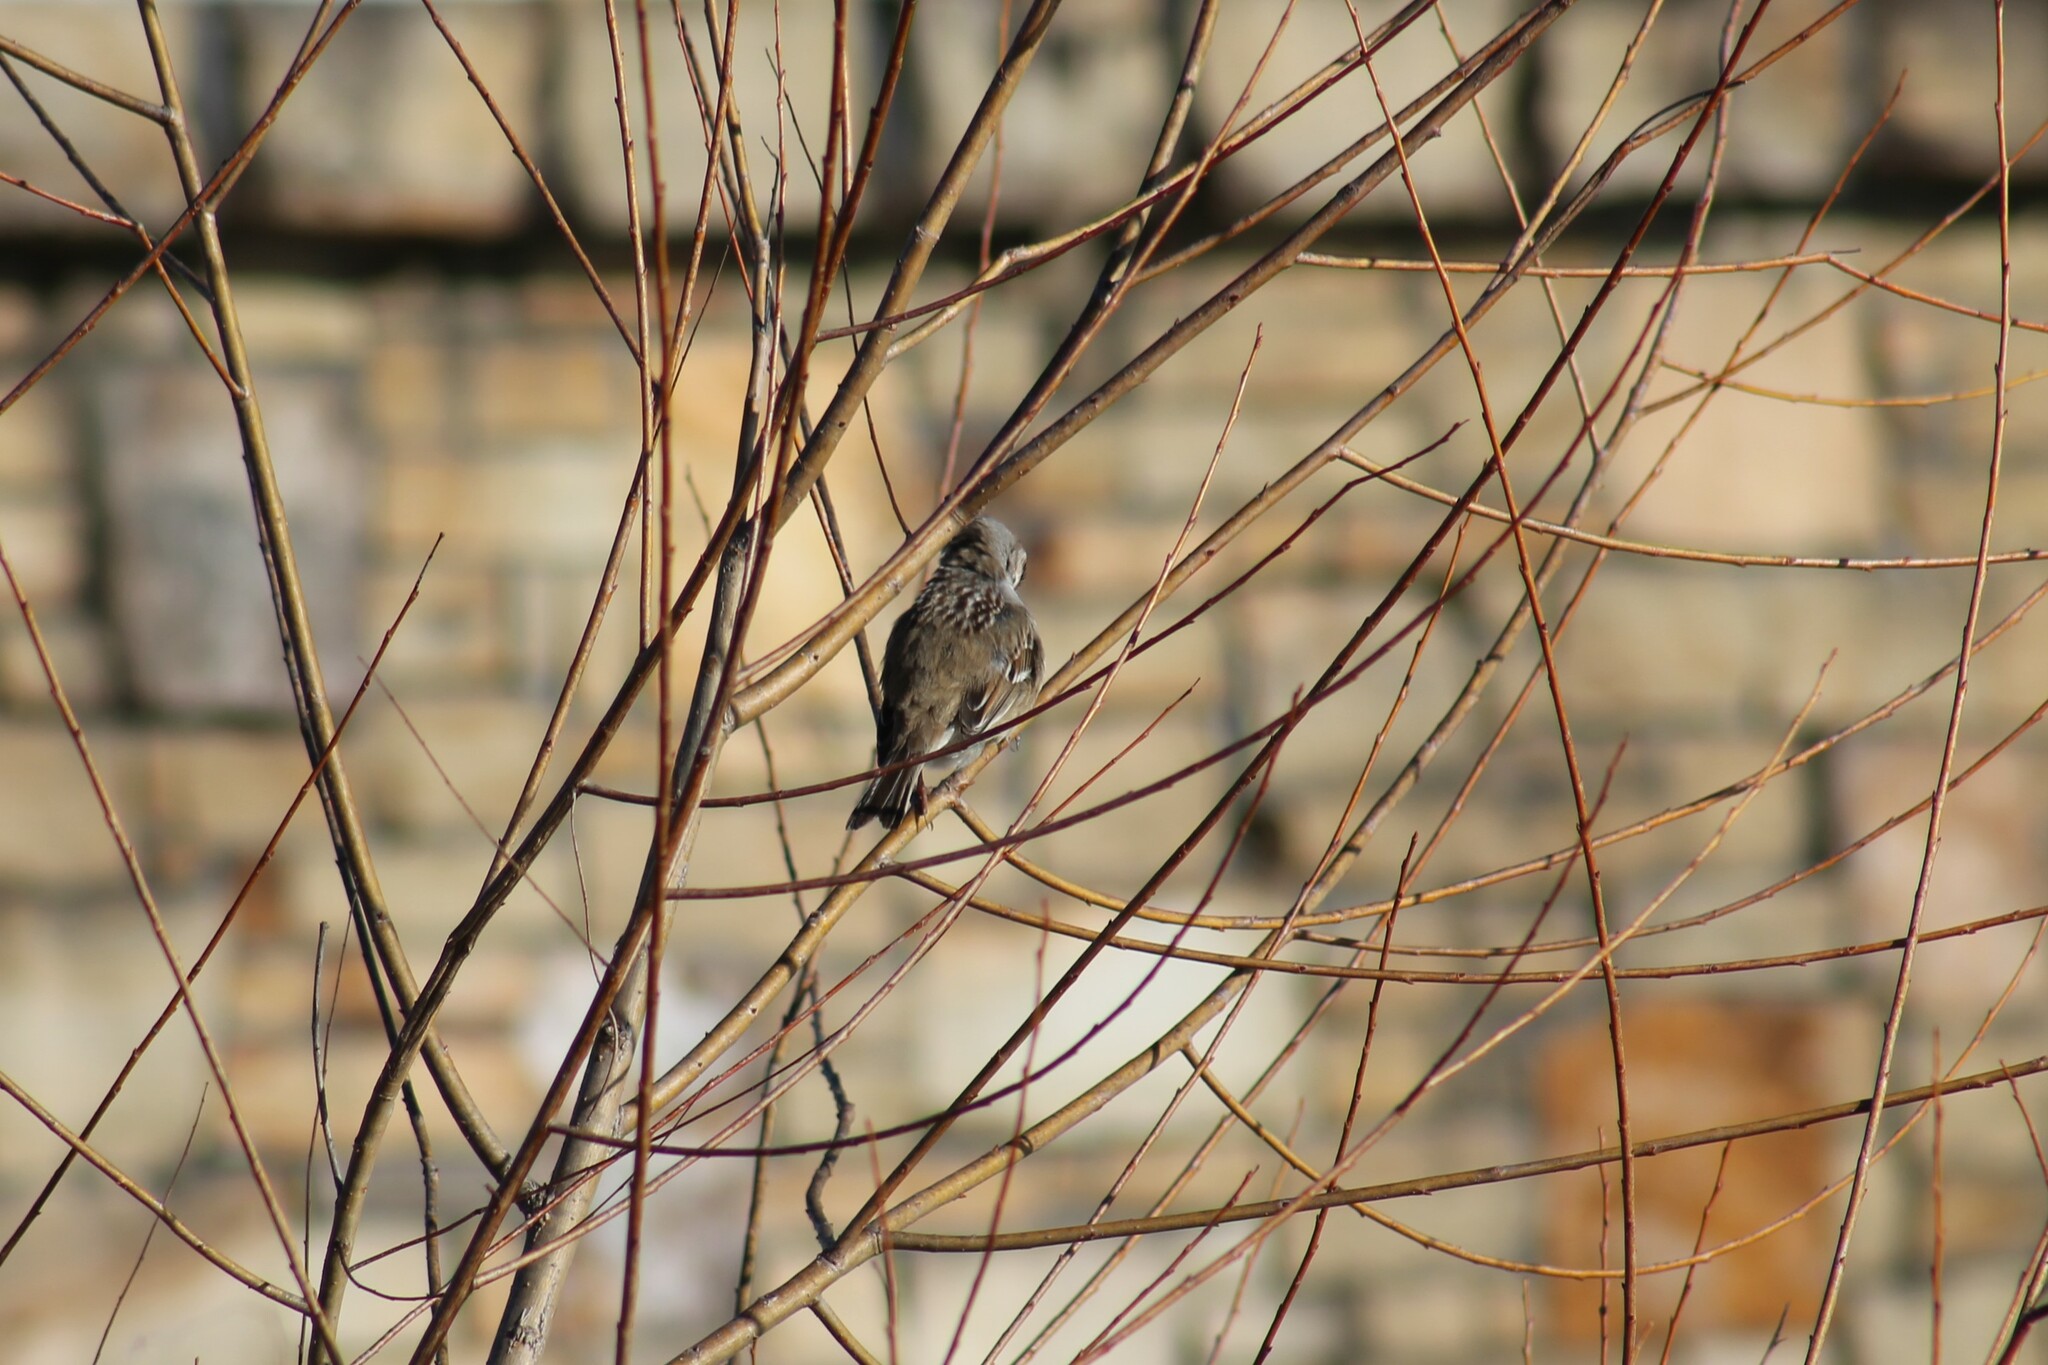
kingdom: Animalia
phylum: Chordata
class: Aves
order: Passeriformes
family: Passerellidae
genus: Zonotrichia
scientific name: Zonotrichia leucophrys
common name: White-crowned sparrow
